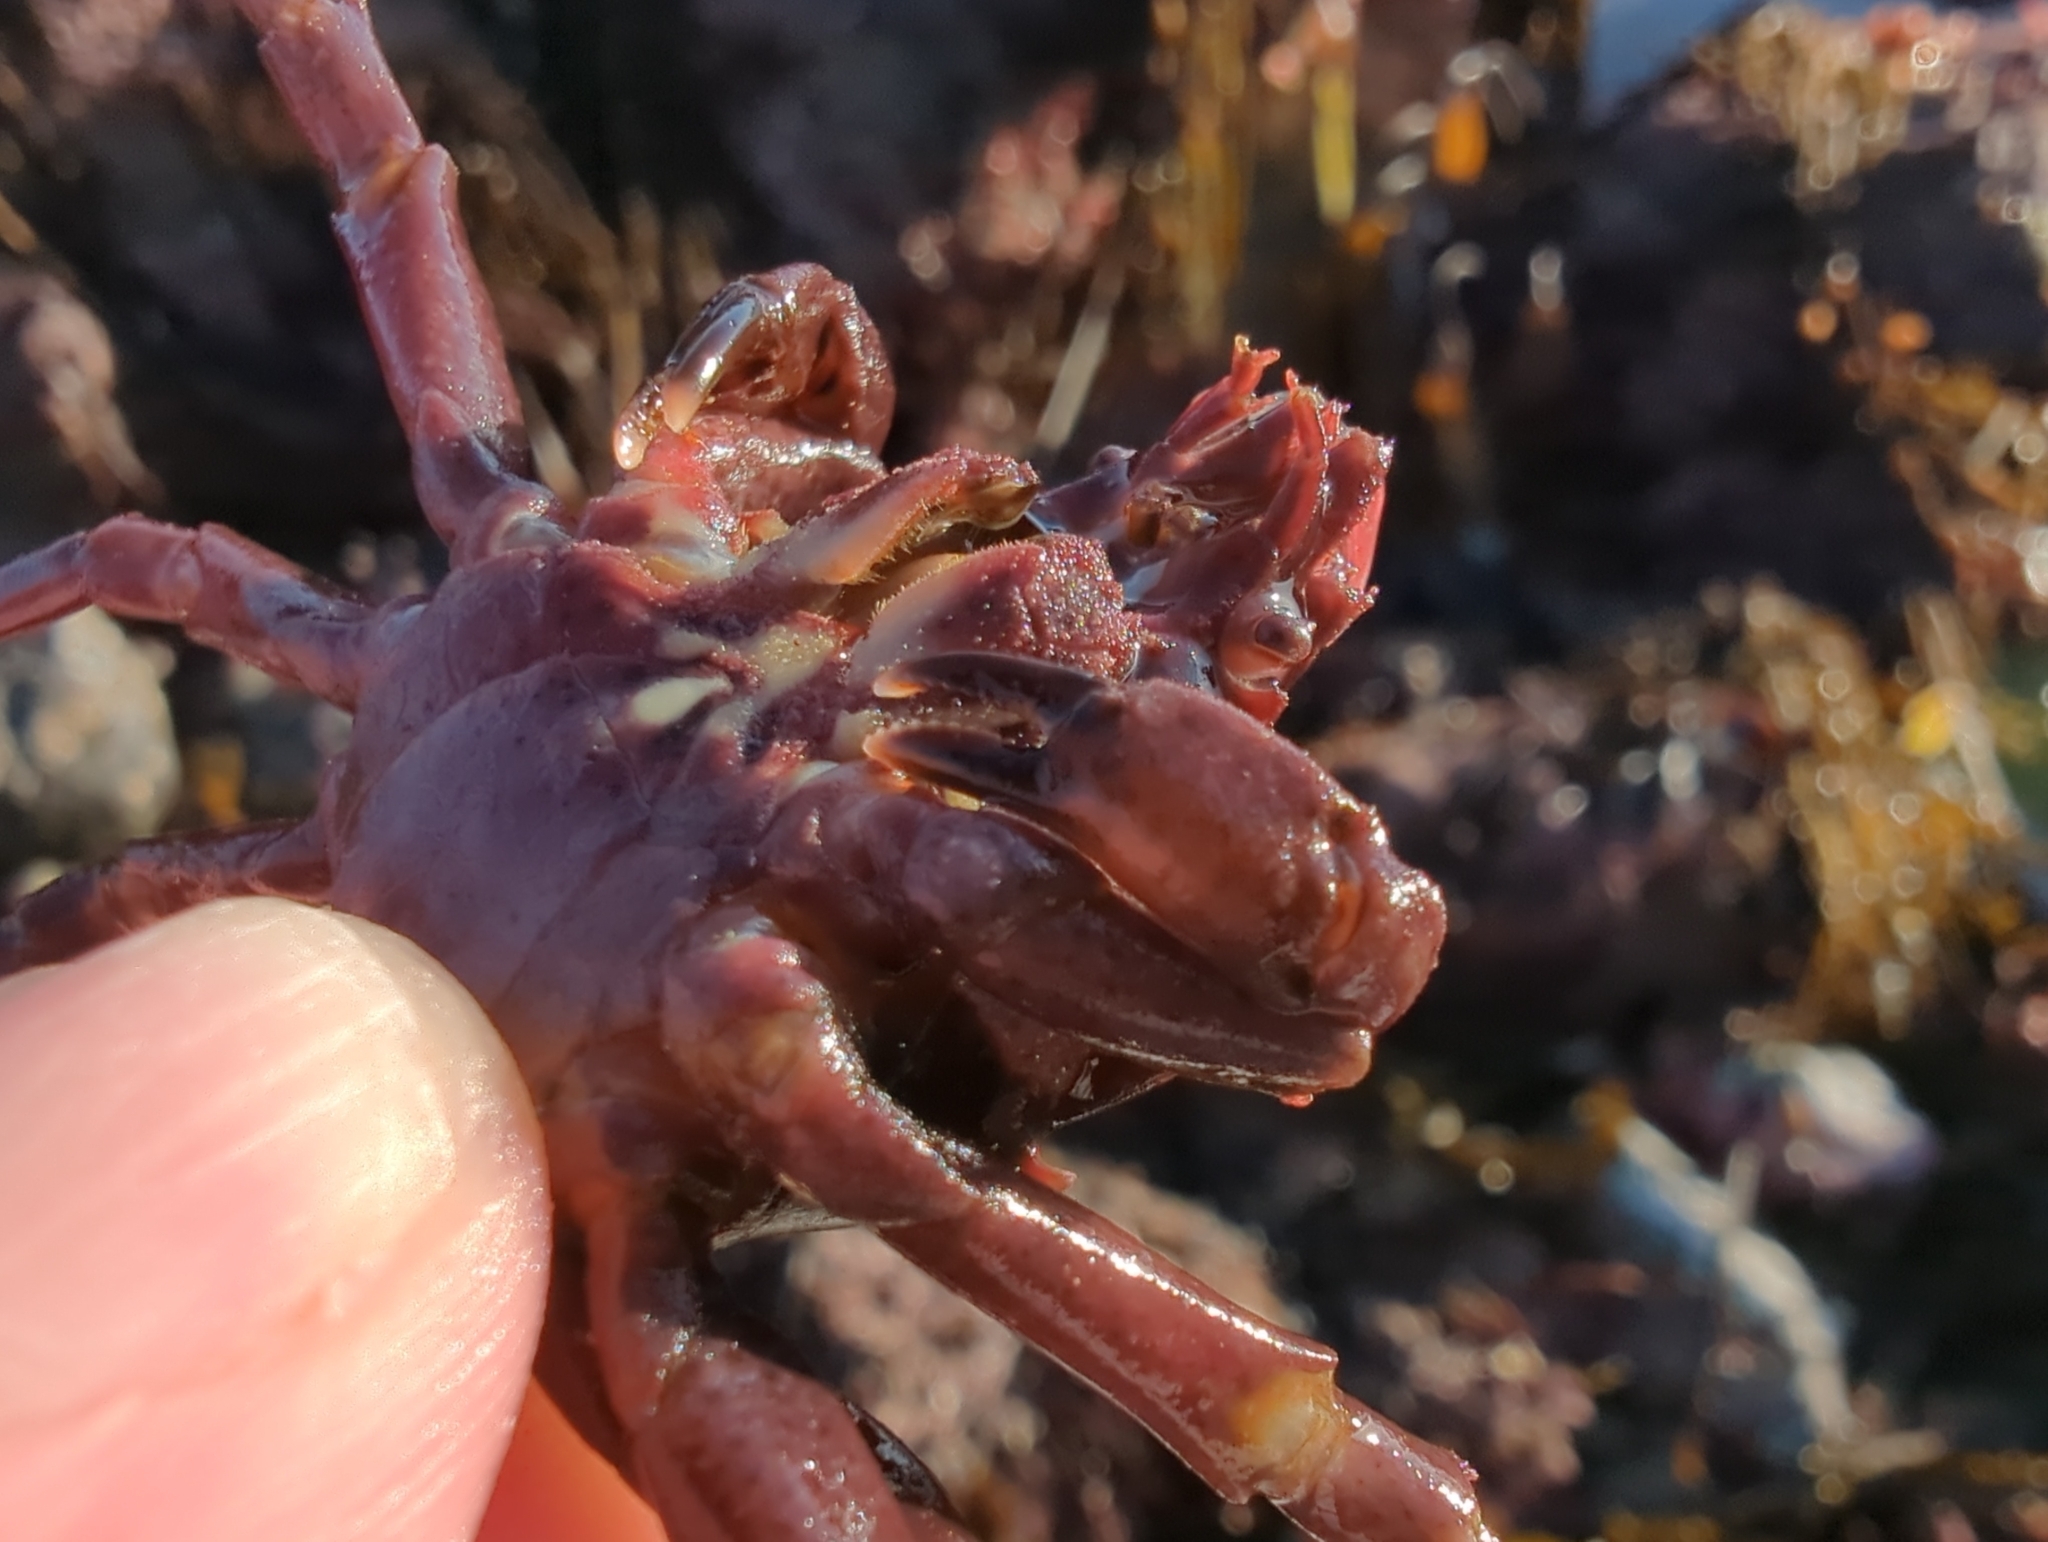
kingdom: Animalia
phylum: Arthropoda
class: Malacostraca
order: Decapoda
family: Epialtidae
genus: Pugettia
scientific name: Pugettia producta
